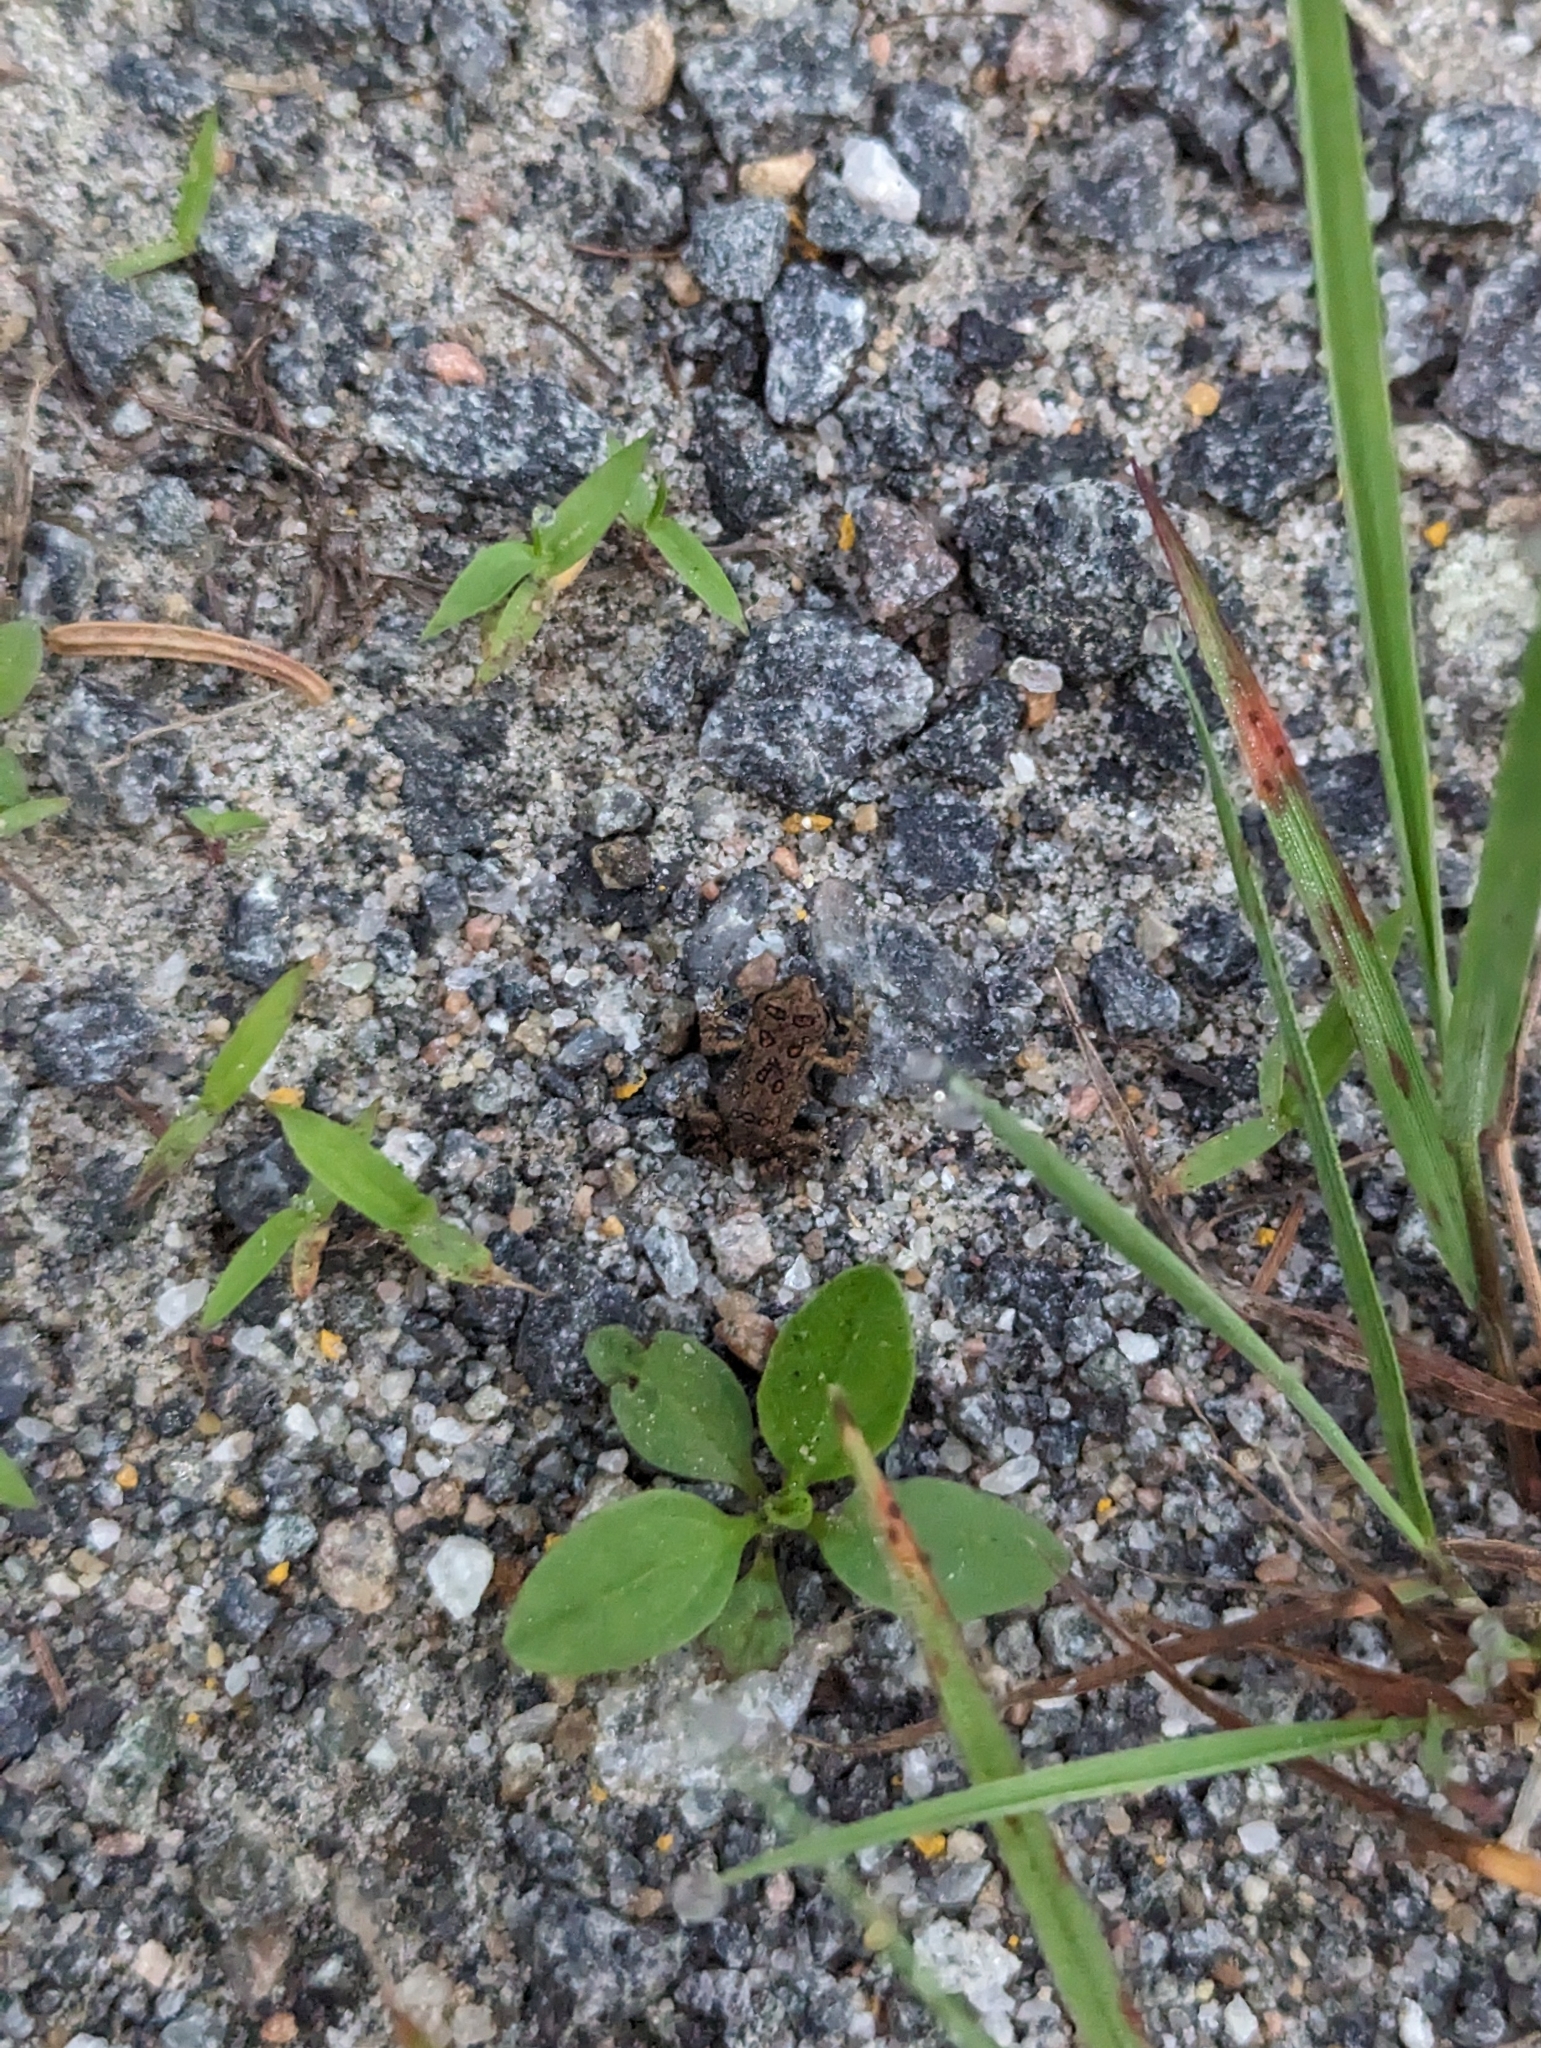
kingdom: Animalia
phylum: Chordata
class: Amphibia
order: Anura
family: Bufonidae
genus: Anaxyrus
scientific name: Anaxyrus americanus
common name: American toad
